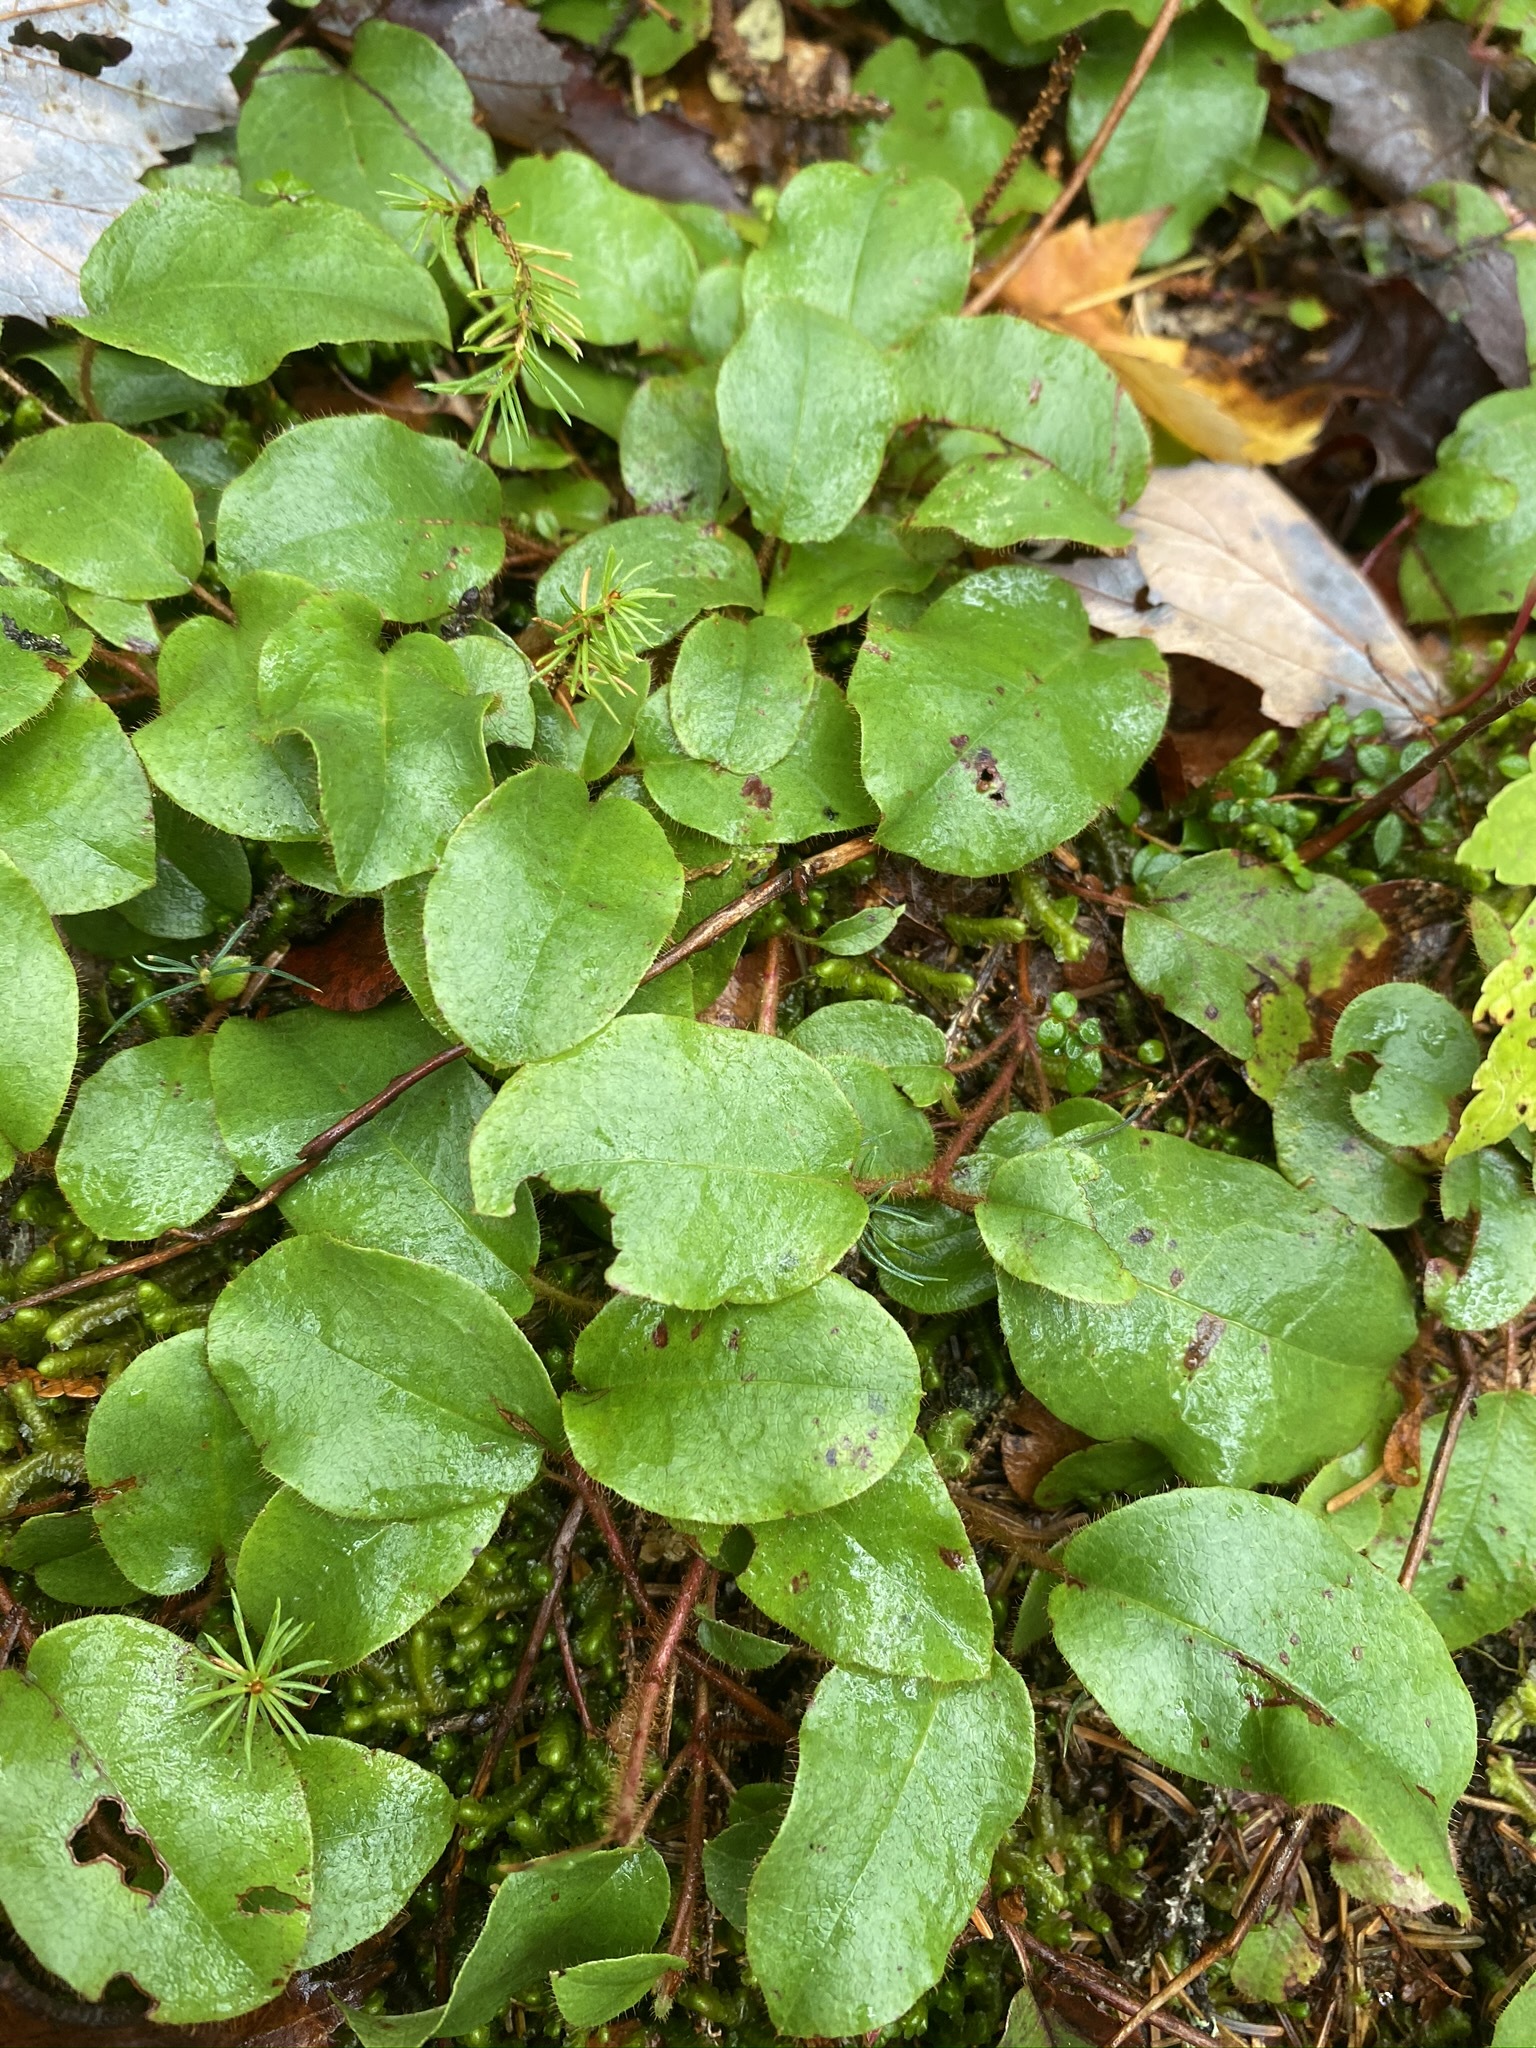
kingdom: Plantae
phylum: Tracheophyta
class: Magnoliopsida
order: Ericales
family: Ericaceae
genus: Epigaea
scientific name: Epigaea repens
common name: Gravelroot
